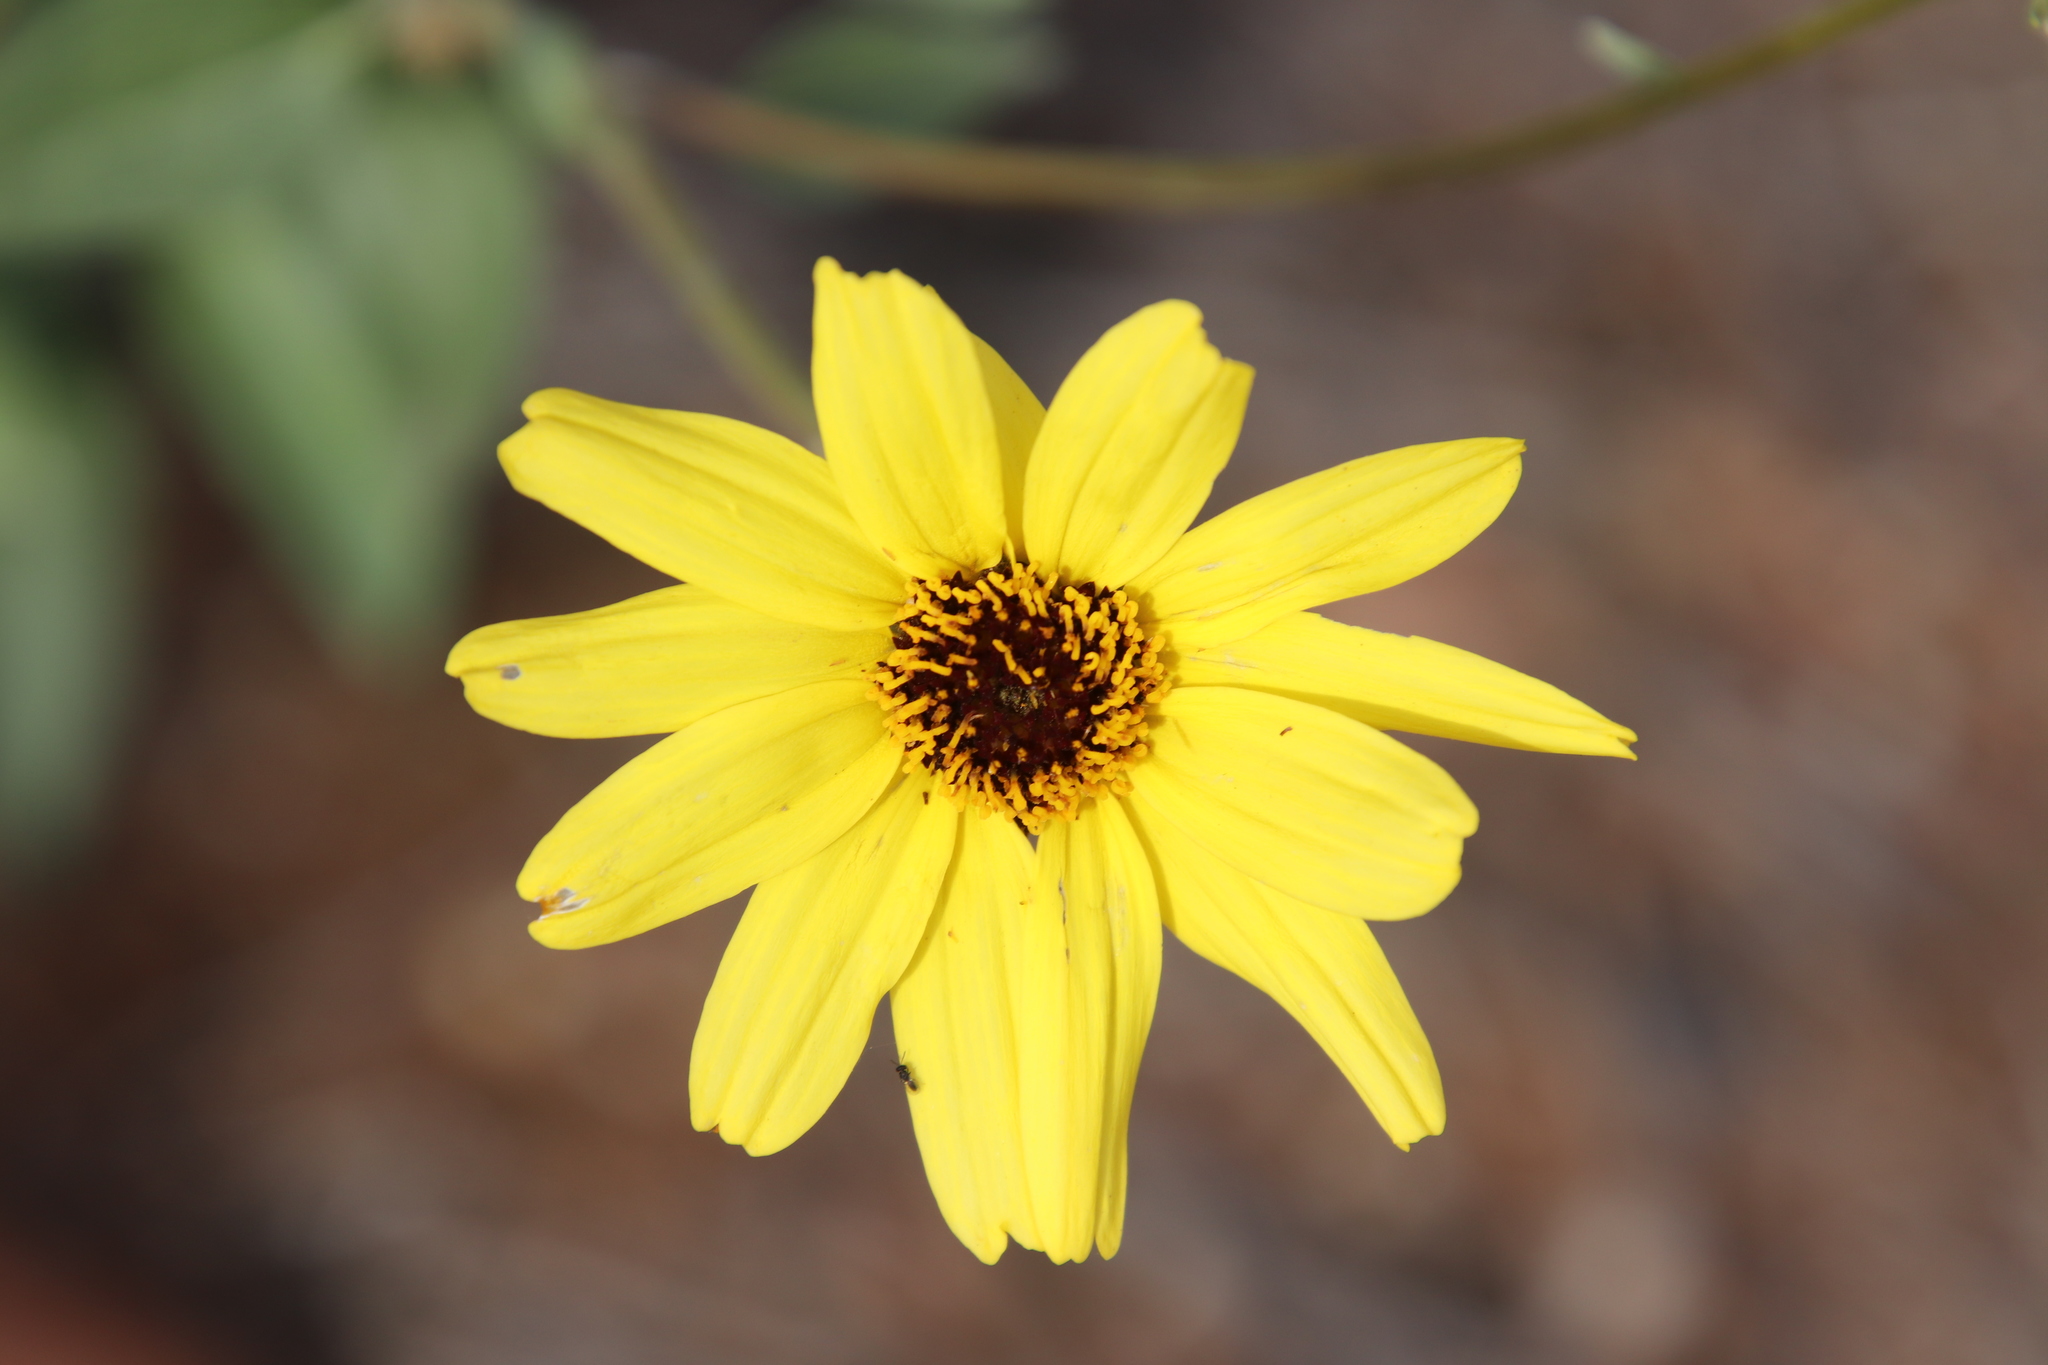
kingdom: Plantae
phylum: Tracheophyta
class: Magnoliopsida
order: Asterales
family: Asteraceae
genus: Encelia
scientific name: Encelia californica
